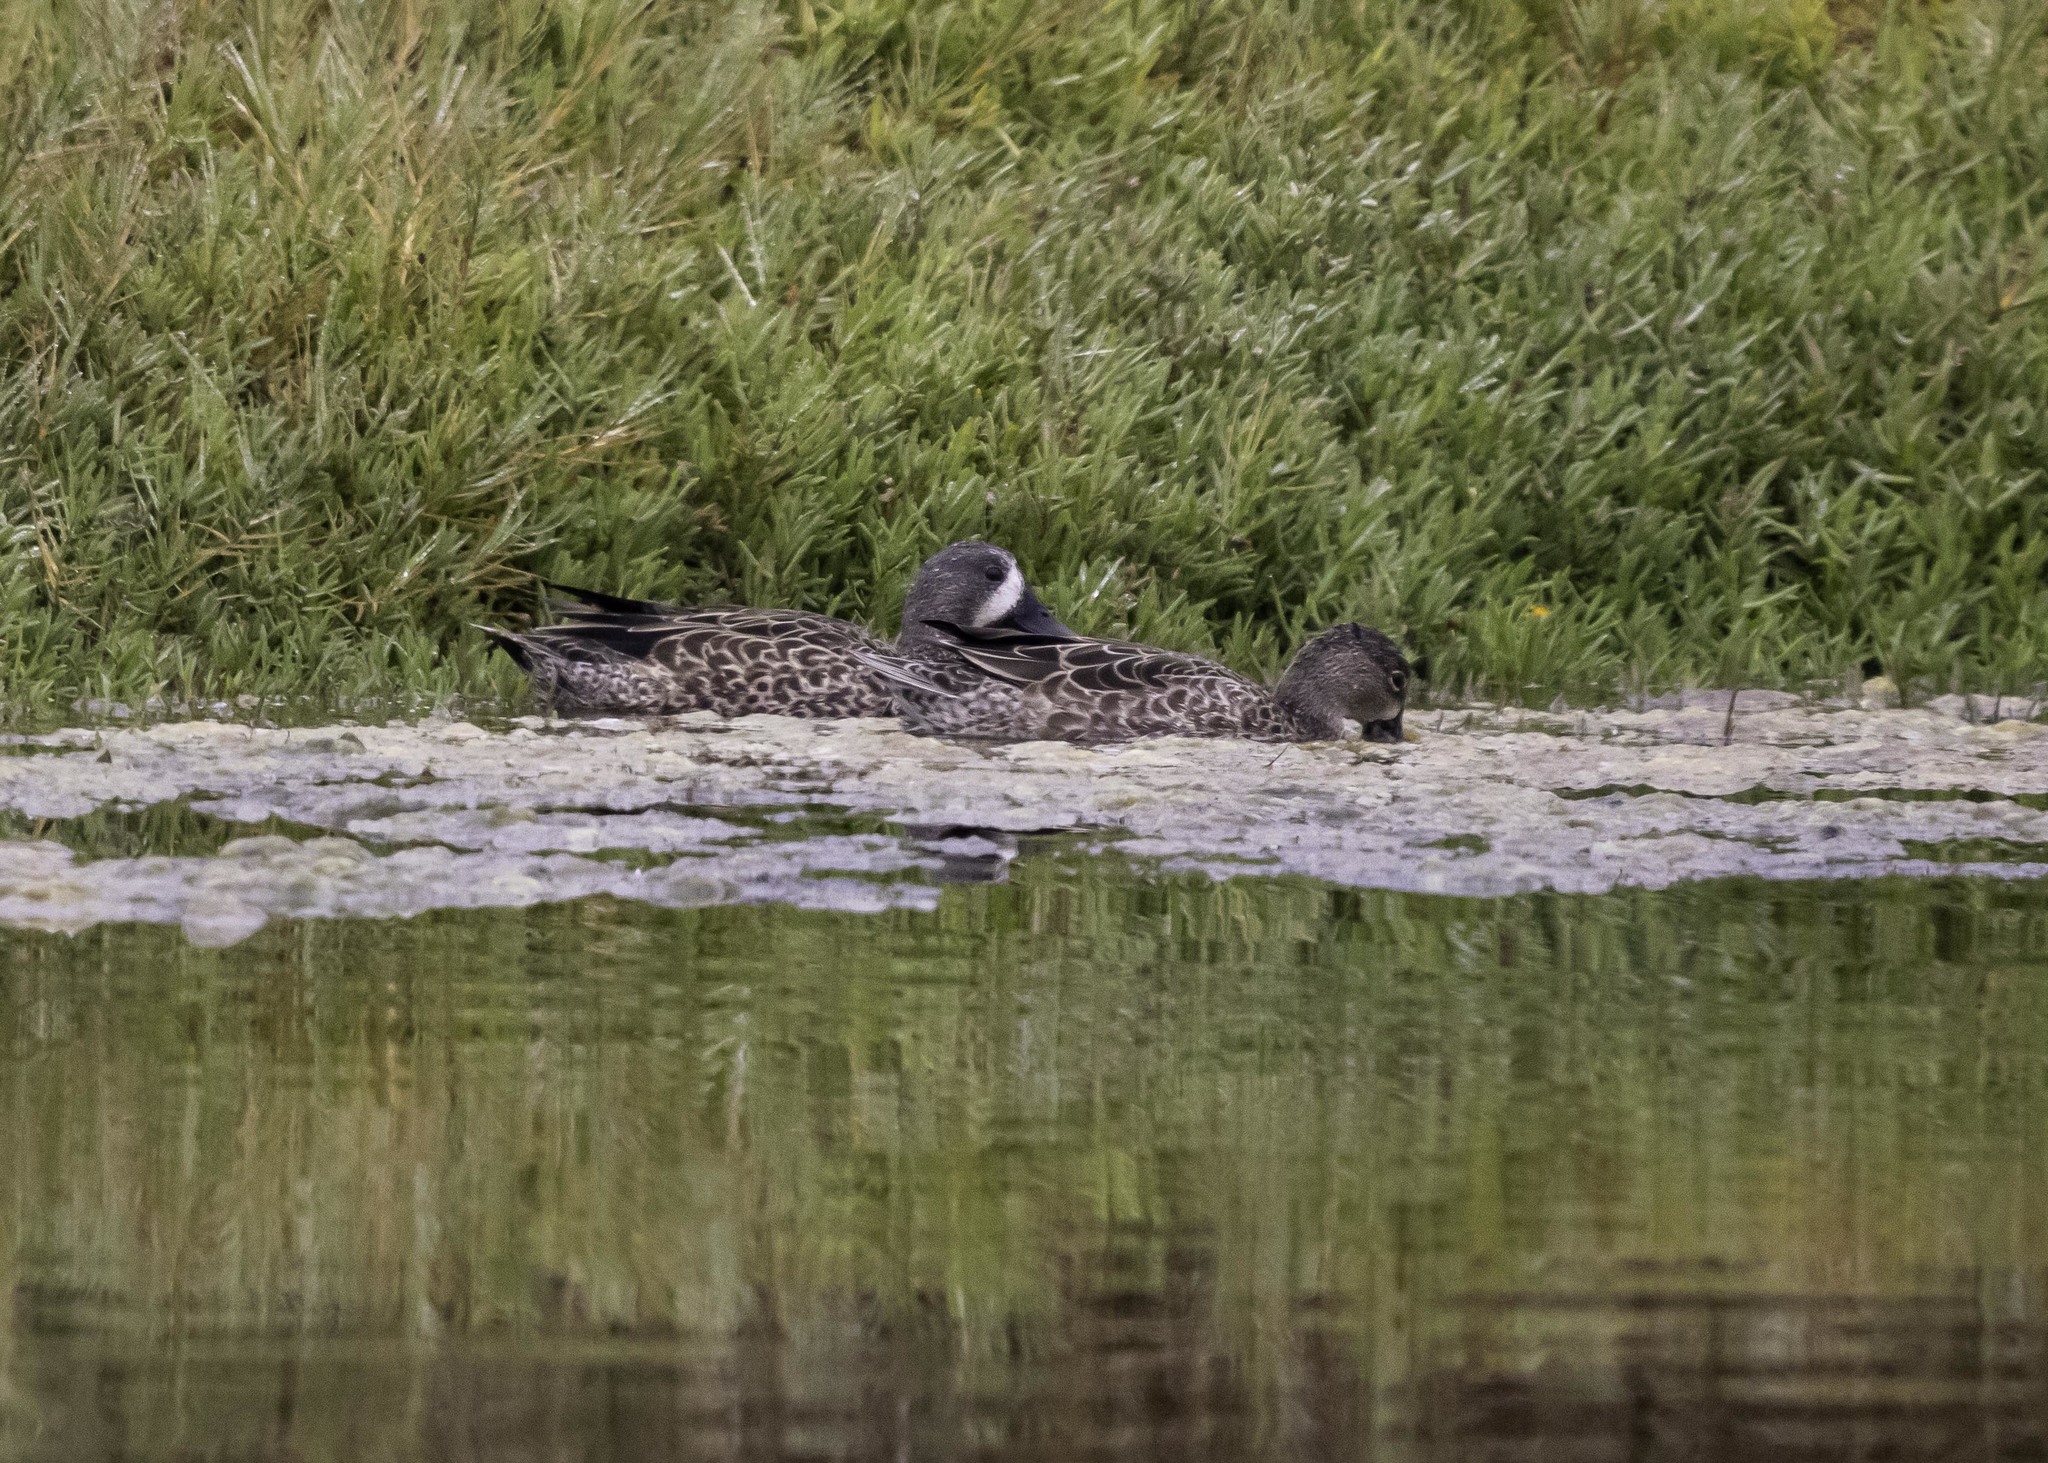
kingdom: Animalia
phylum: Chordata
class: Aves
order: Anseriformes
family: Anatidae
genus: Spatula
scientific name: Spatula discors
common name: Blue-winged teal
